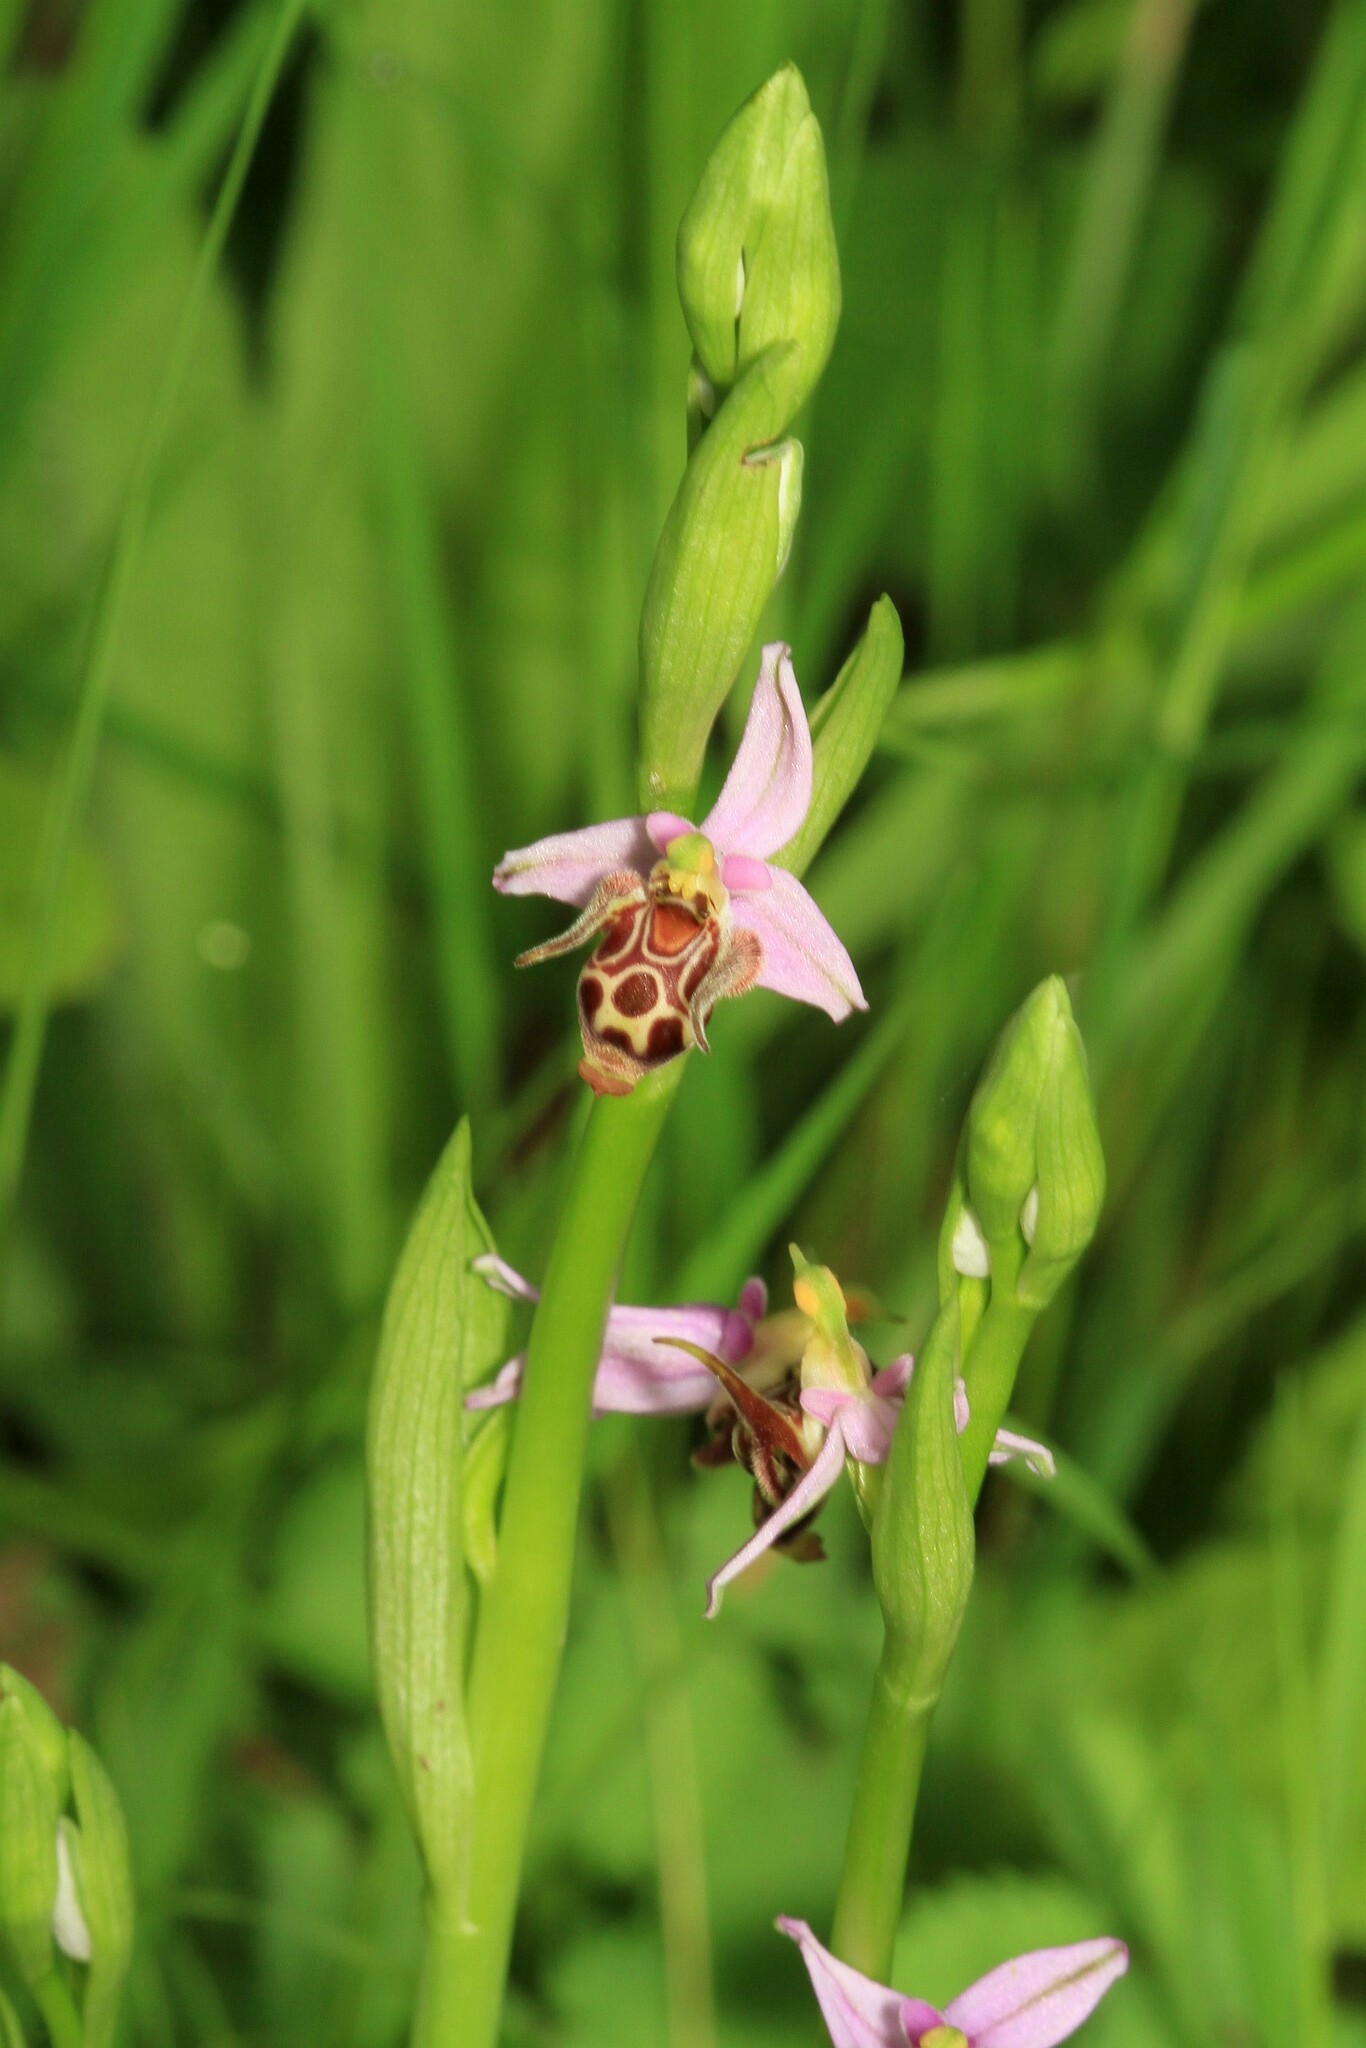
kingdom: Plantae
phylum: Tracheophyta
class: Liliopsida
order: Asparagales
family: Orchidaceae
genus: Ophrys
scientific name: Ophrys
